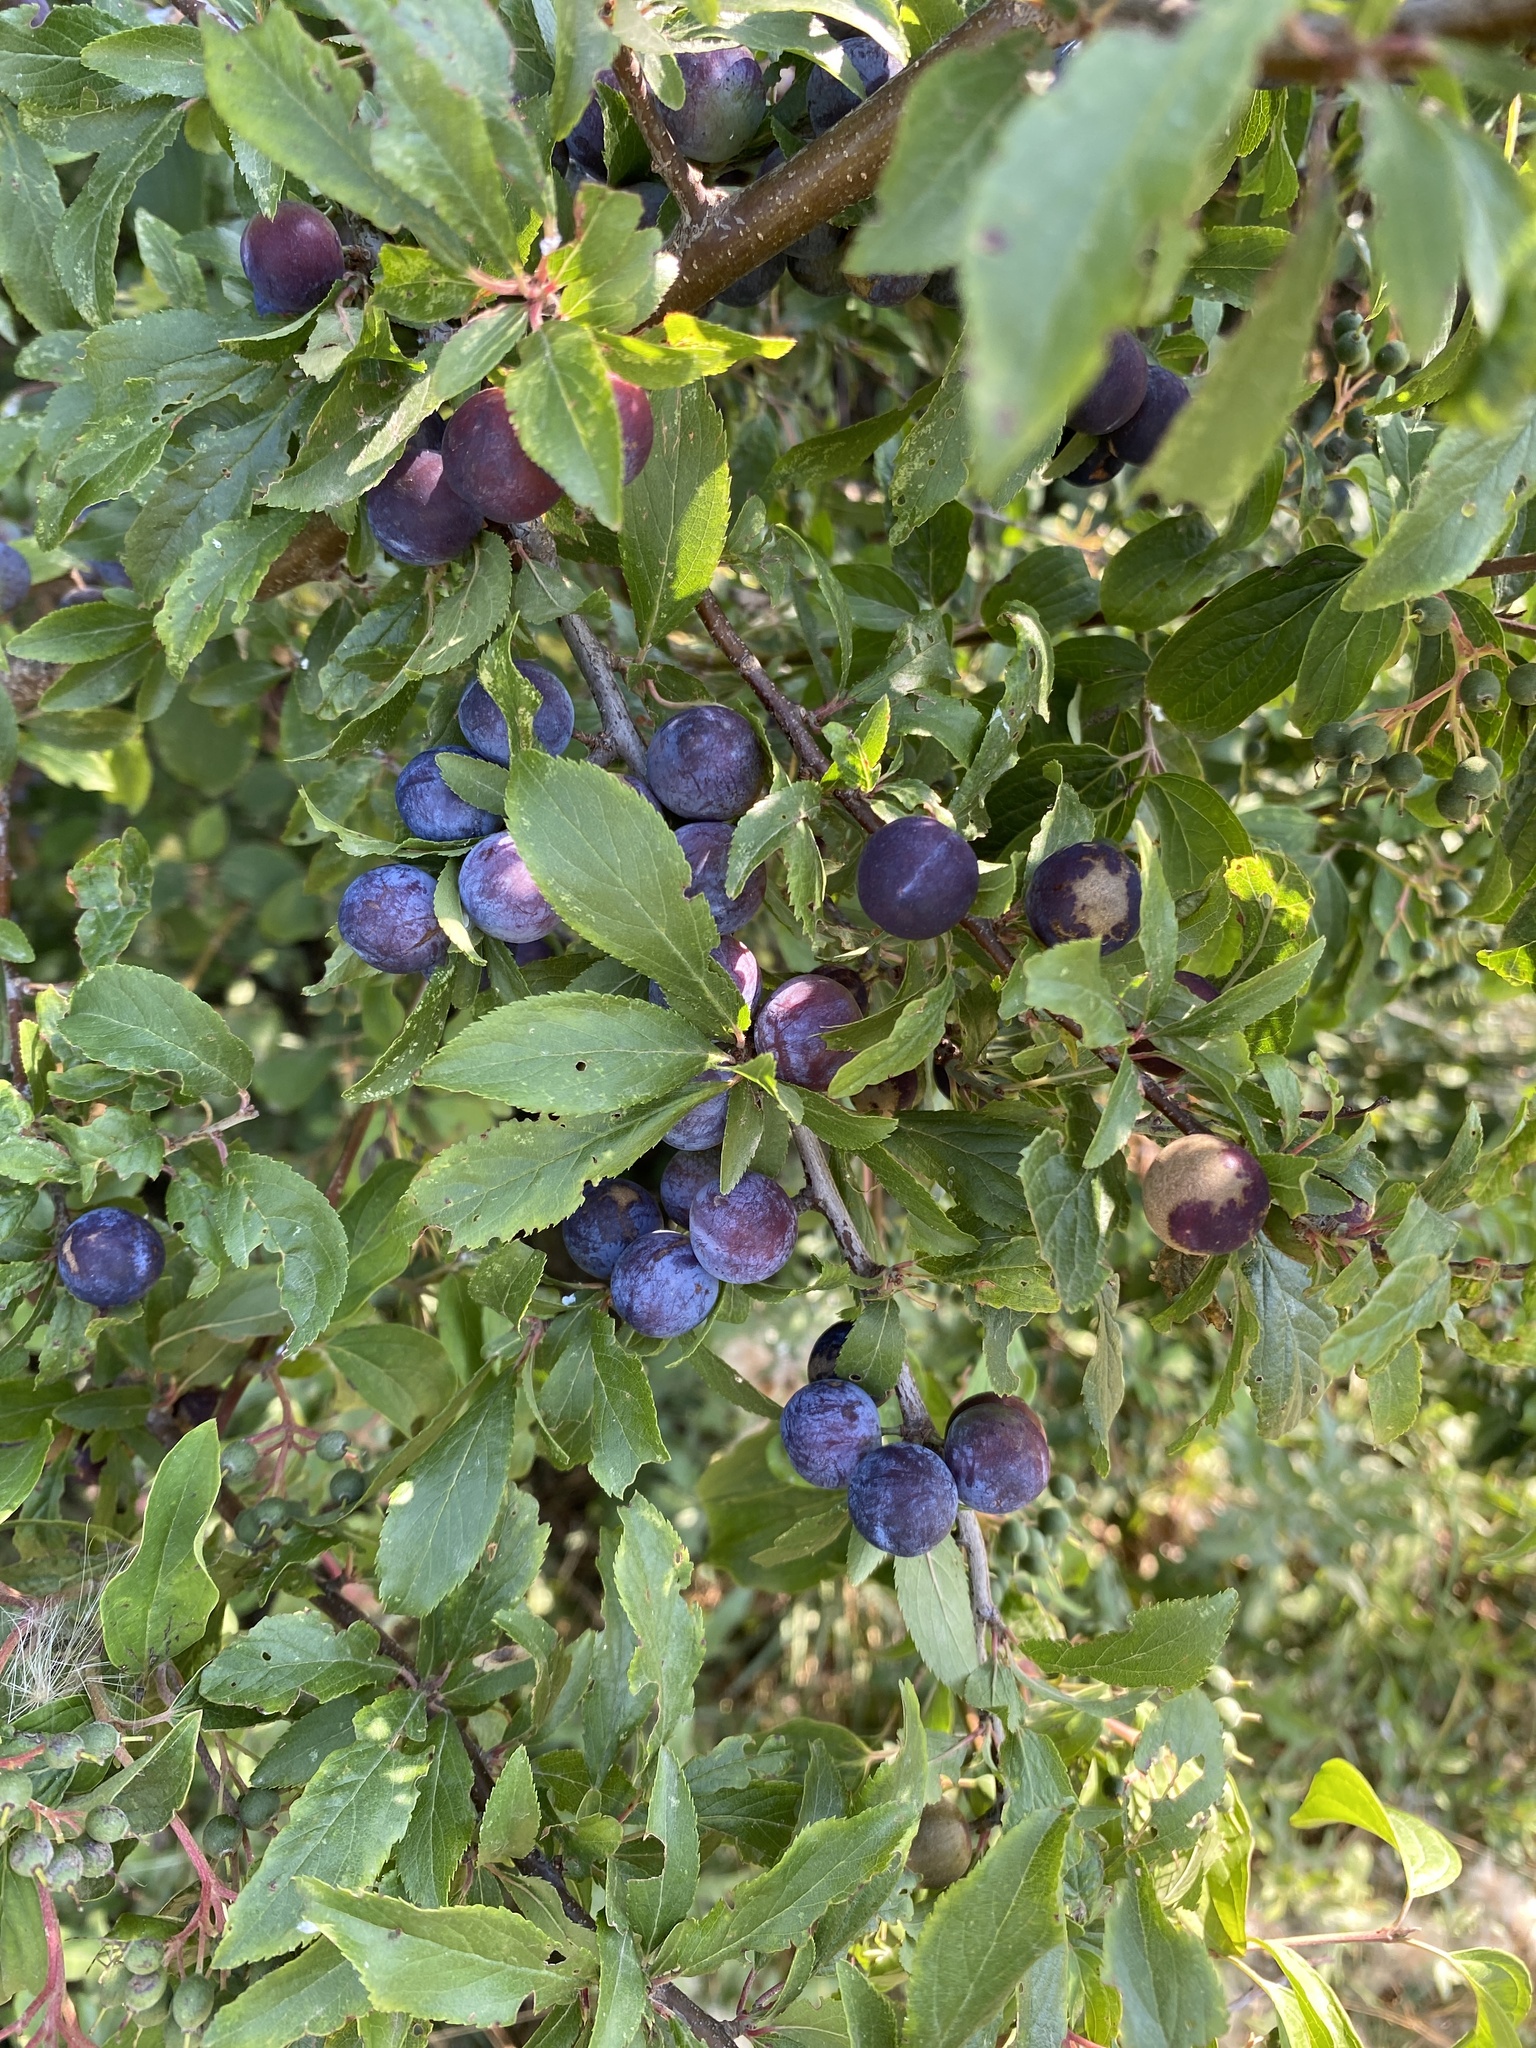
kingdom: Plantae
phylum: Tracheophyta
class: Magnoliopsida
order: Rosales
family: Rosaceae
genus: Prunus
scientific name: Prunus spinosa
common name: Blackthorn
